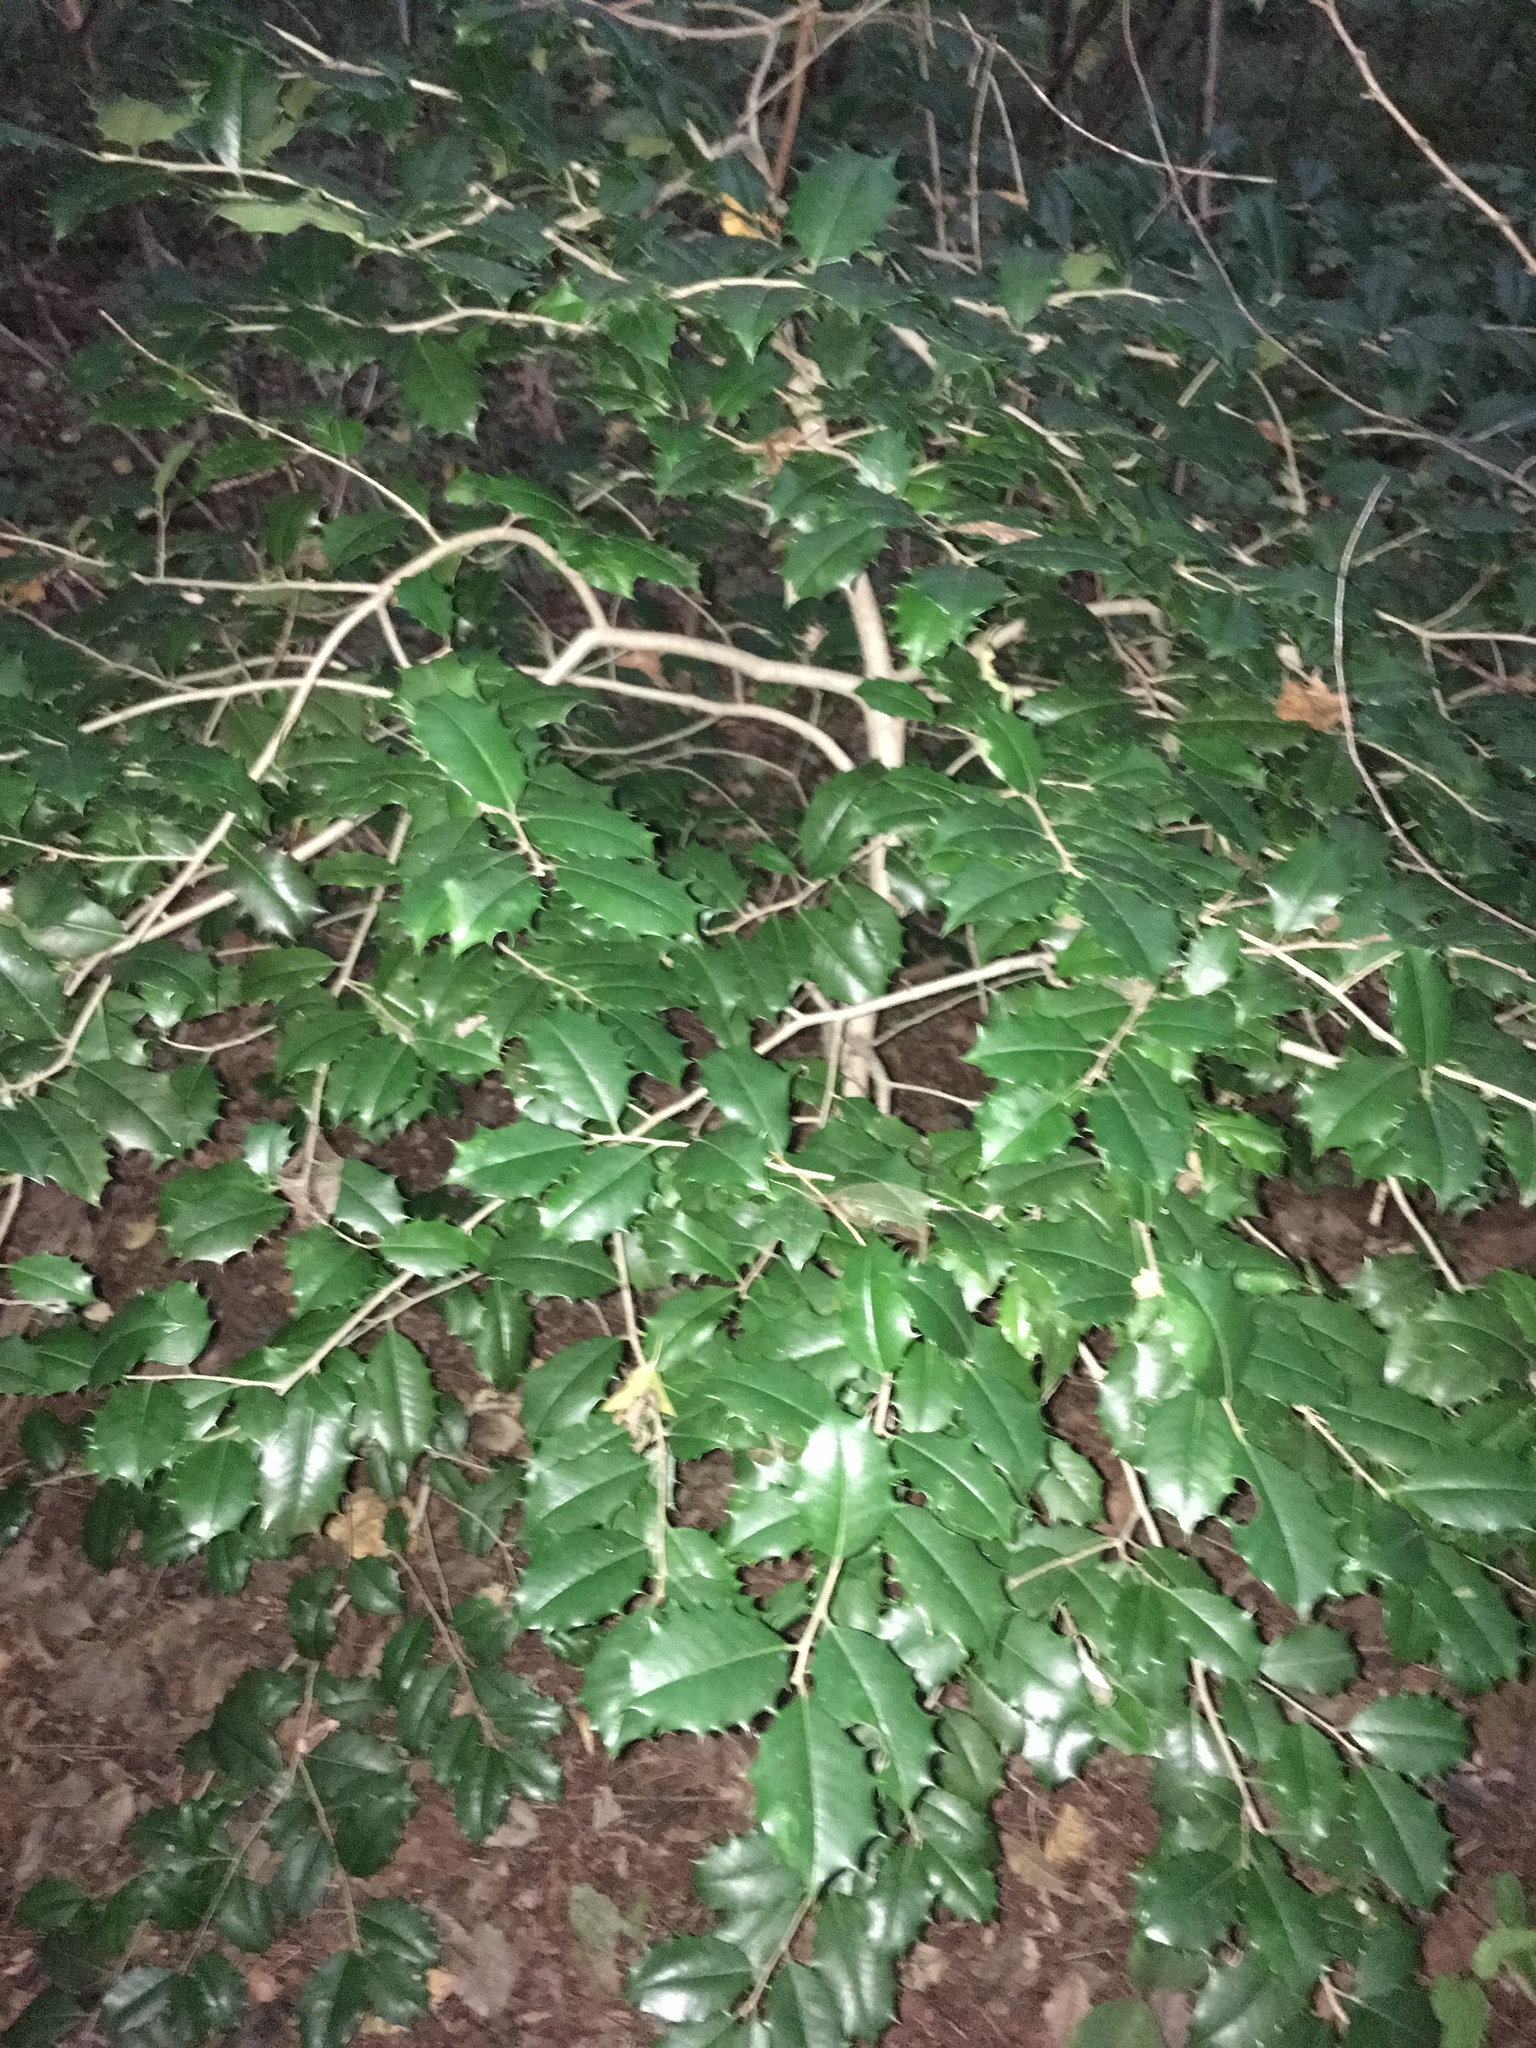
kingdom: Plantae
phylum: Tracheophyta
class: Magnoliopsida
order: Aquifoliales
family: Aquifoliaceae
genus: Ilex
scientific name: Ilex opaca
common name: American holly
